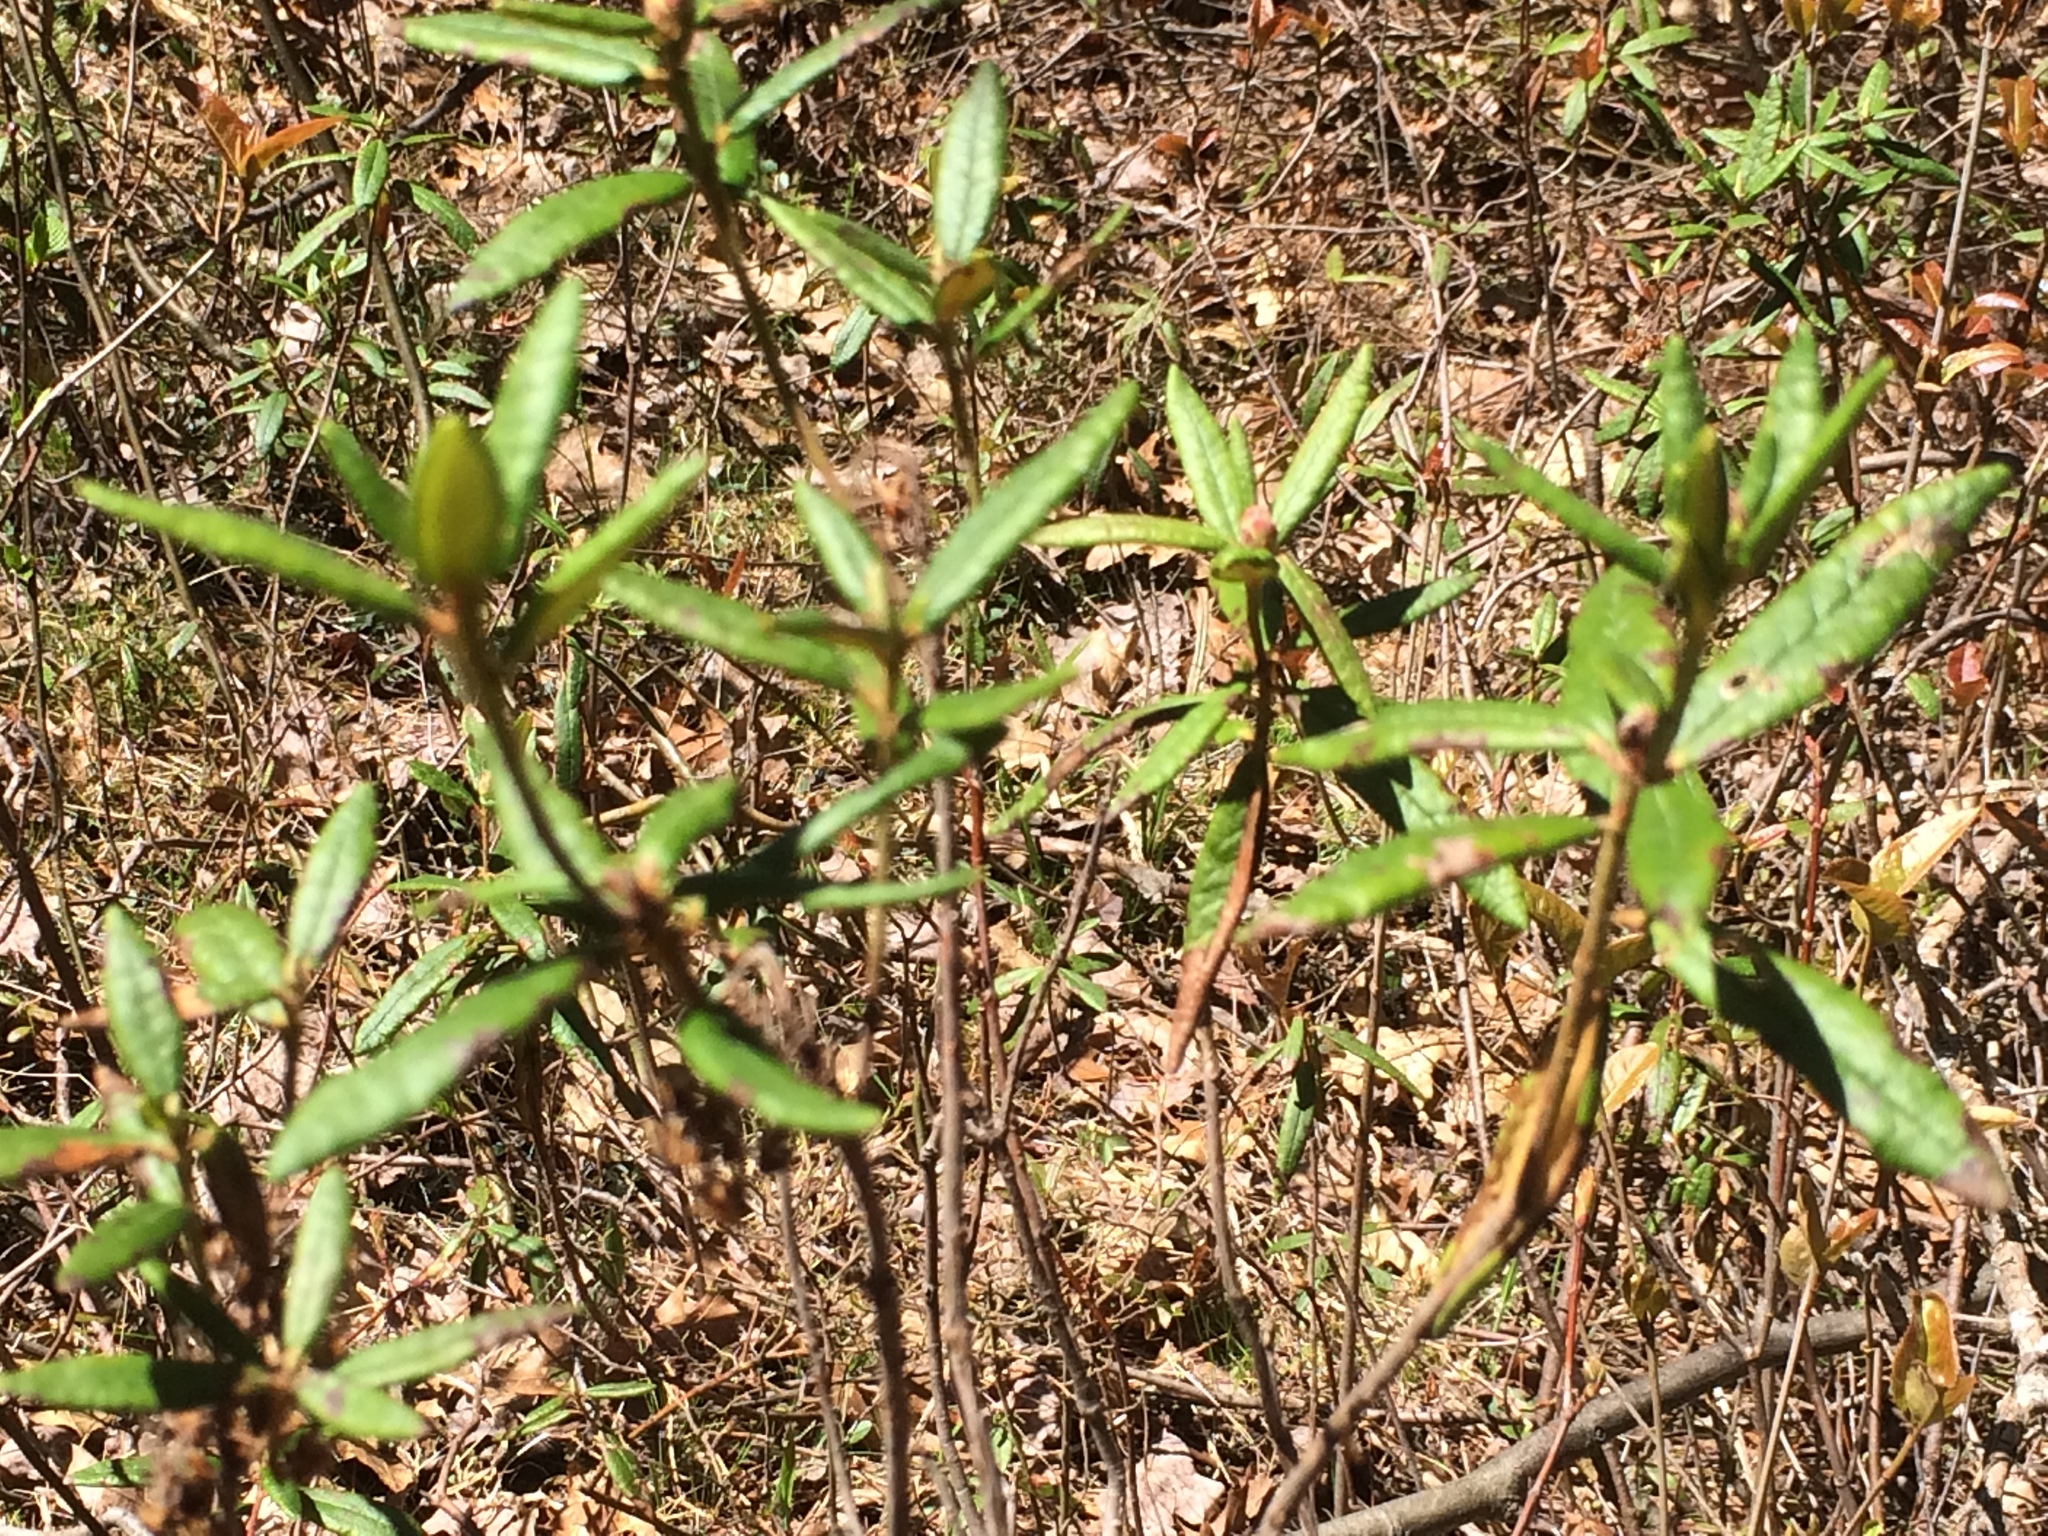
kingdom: Plantae
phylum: Tracheophyta
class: Magnoliopsida
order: Ericales
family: Ericaceae
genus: Rhododendron
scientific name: Rhododendron groenlandicum
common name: Bog labrador tea
